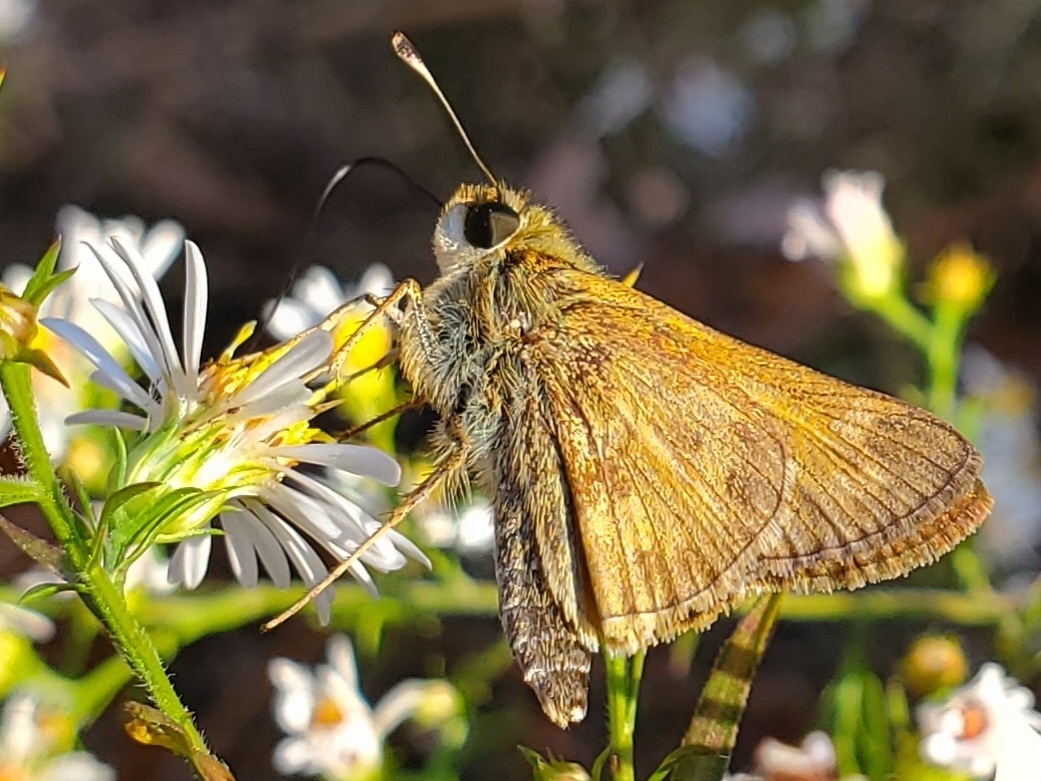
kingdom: Animalia
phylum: Arthropoda
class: Insecta
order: Lepidoptera
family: Hesperiidae
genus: Atalopedes
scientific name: Atalopedes
